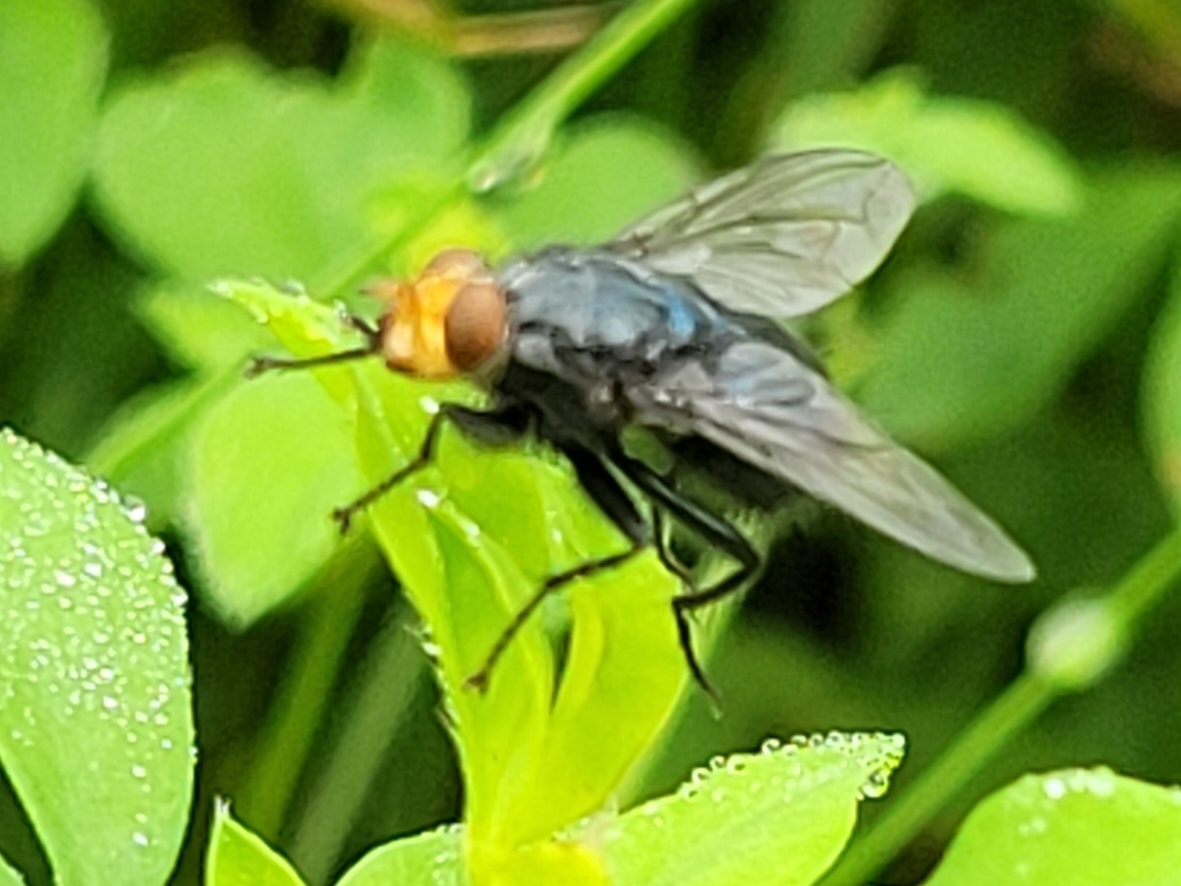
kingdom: Animalia
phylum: Arthropoda
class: Insecta
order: Diptera
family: Calliphoridae
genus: Cynomya
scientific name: Cynomya mortuorum
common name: Bluebottle blow fly
